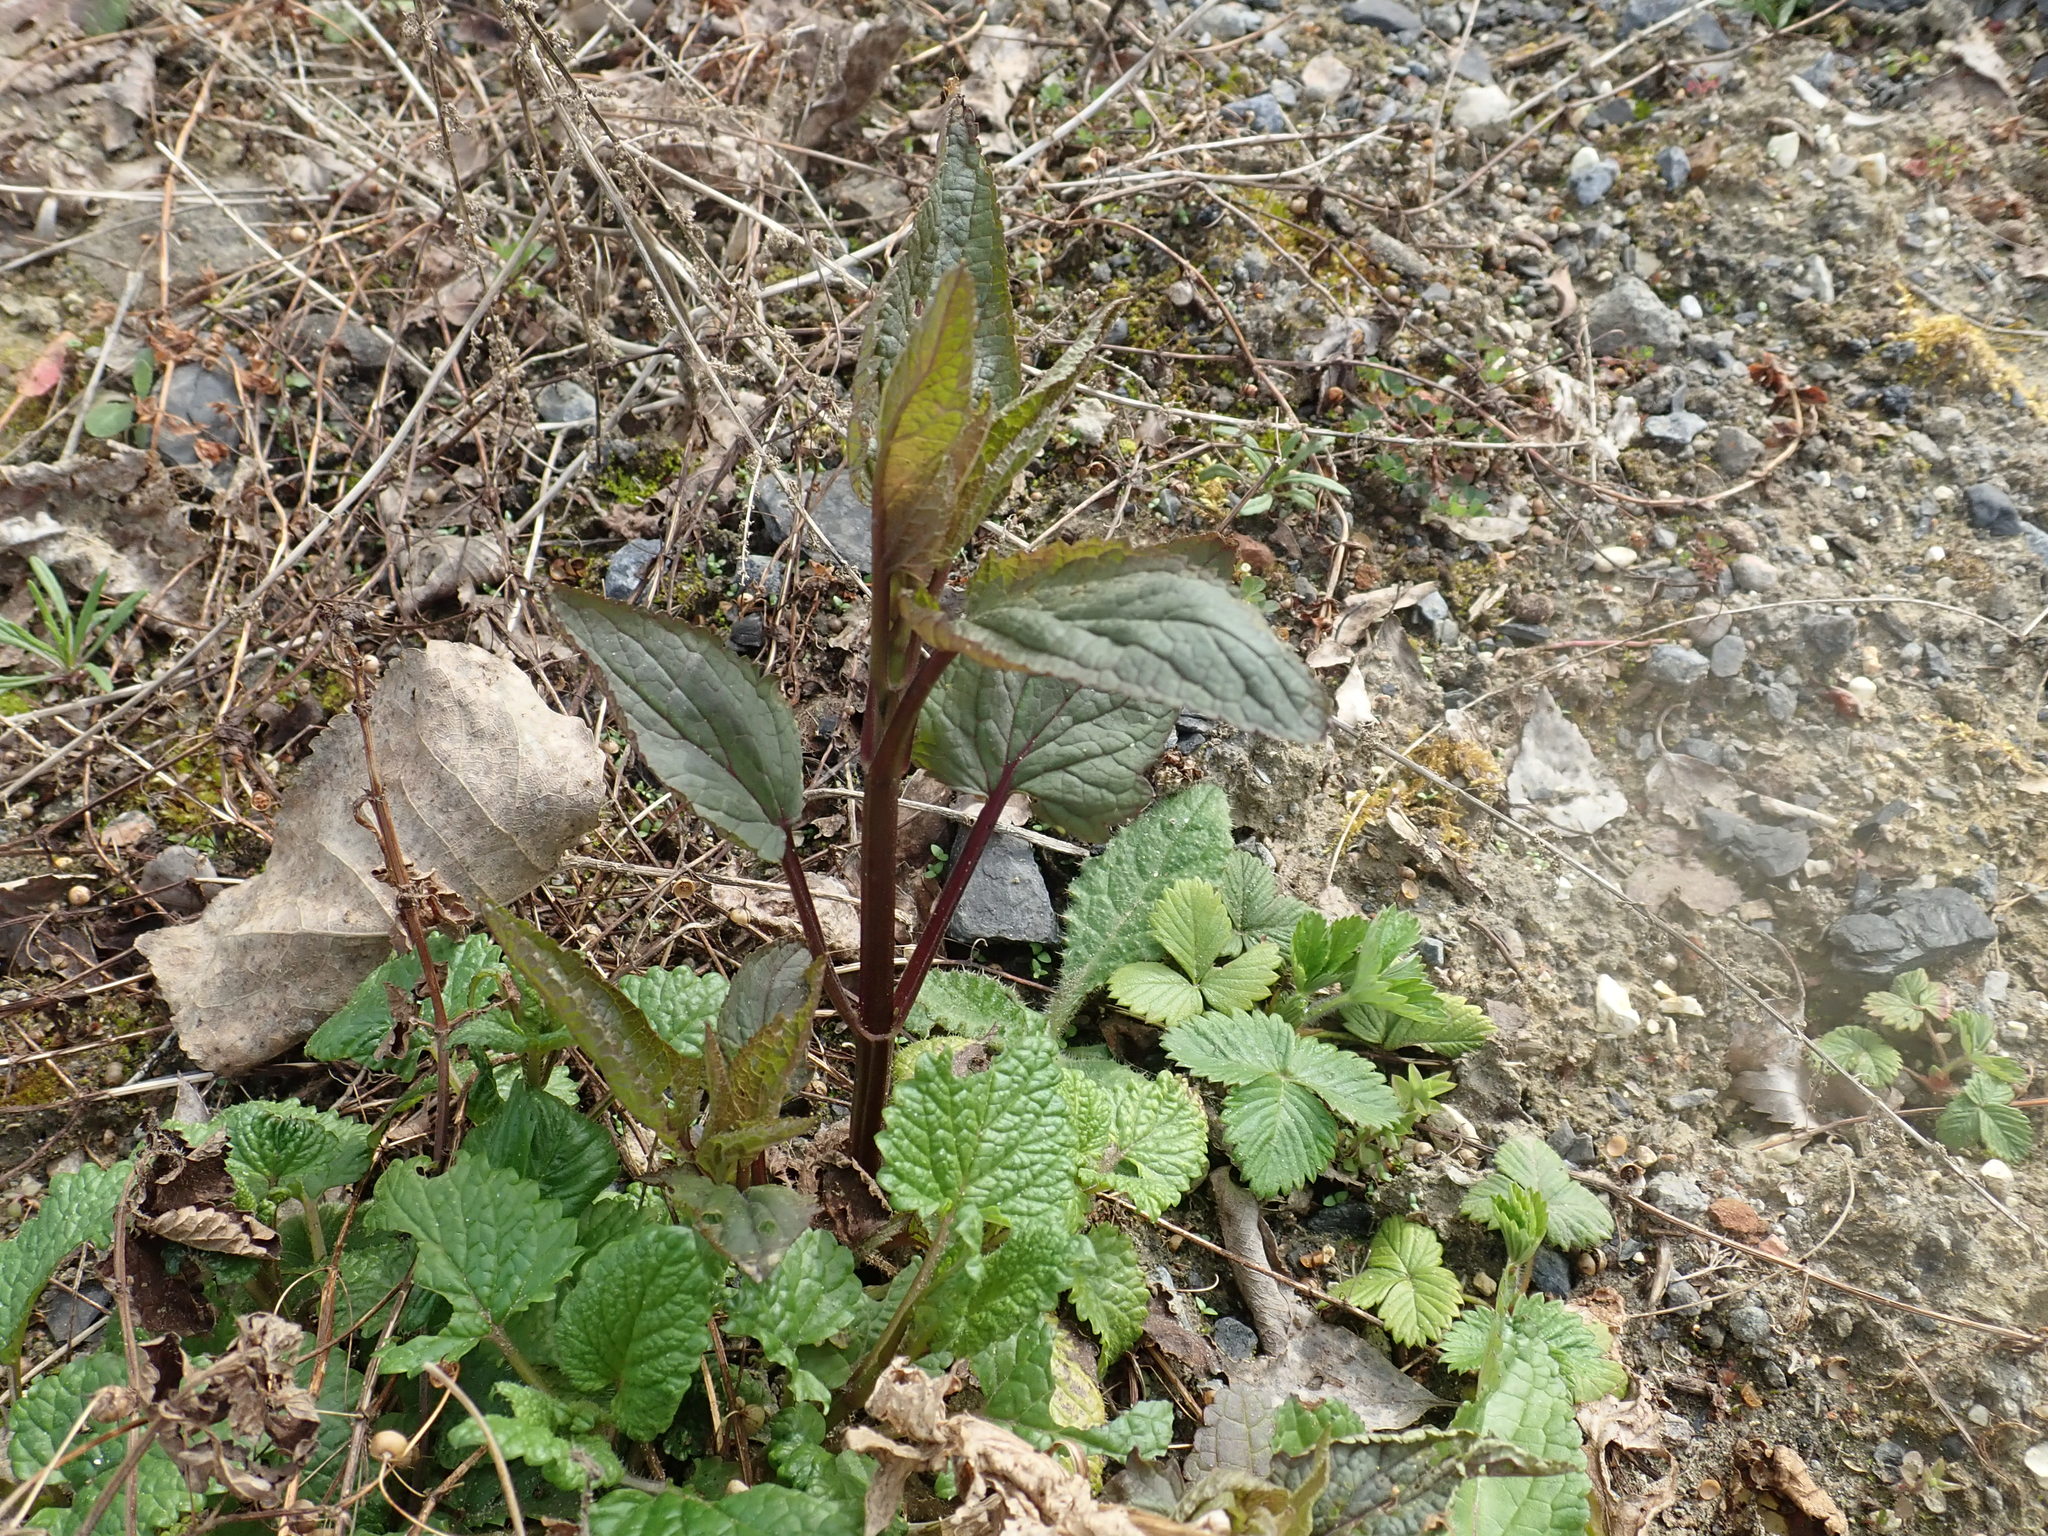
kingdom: Plantae
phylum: Tracheophyta
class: Magnoliopsida
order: Lamiales
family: Scrophulariaceae
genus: Scrophularia
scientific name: Scrophularia nodosa
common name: Common figwort
